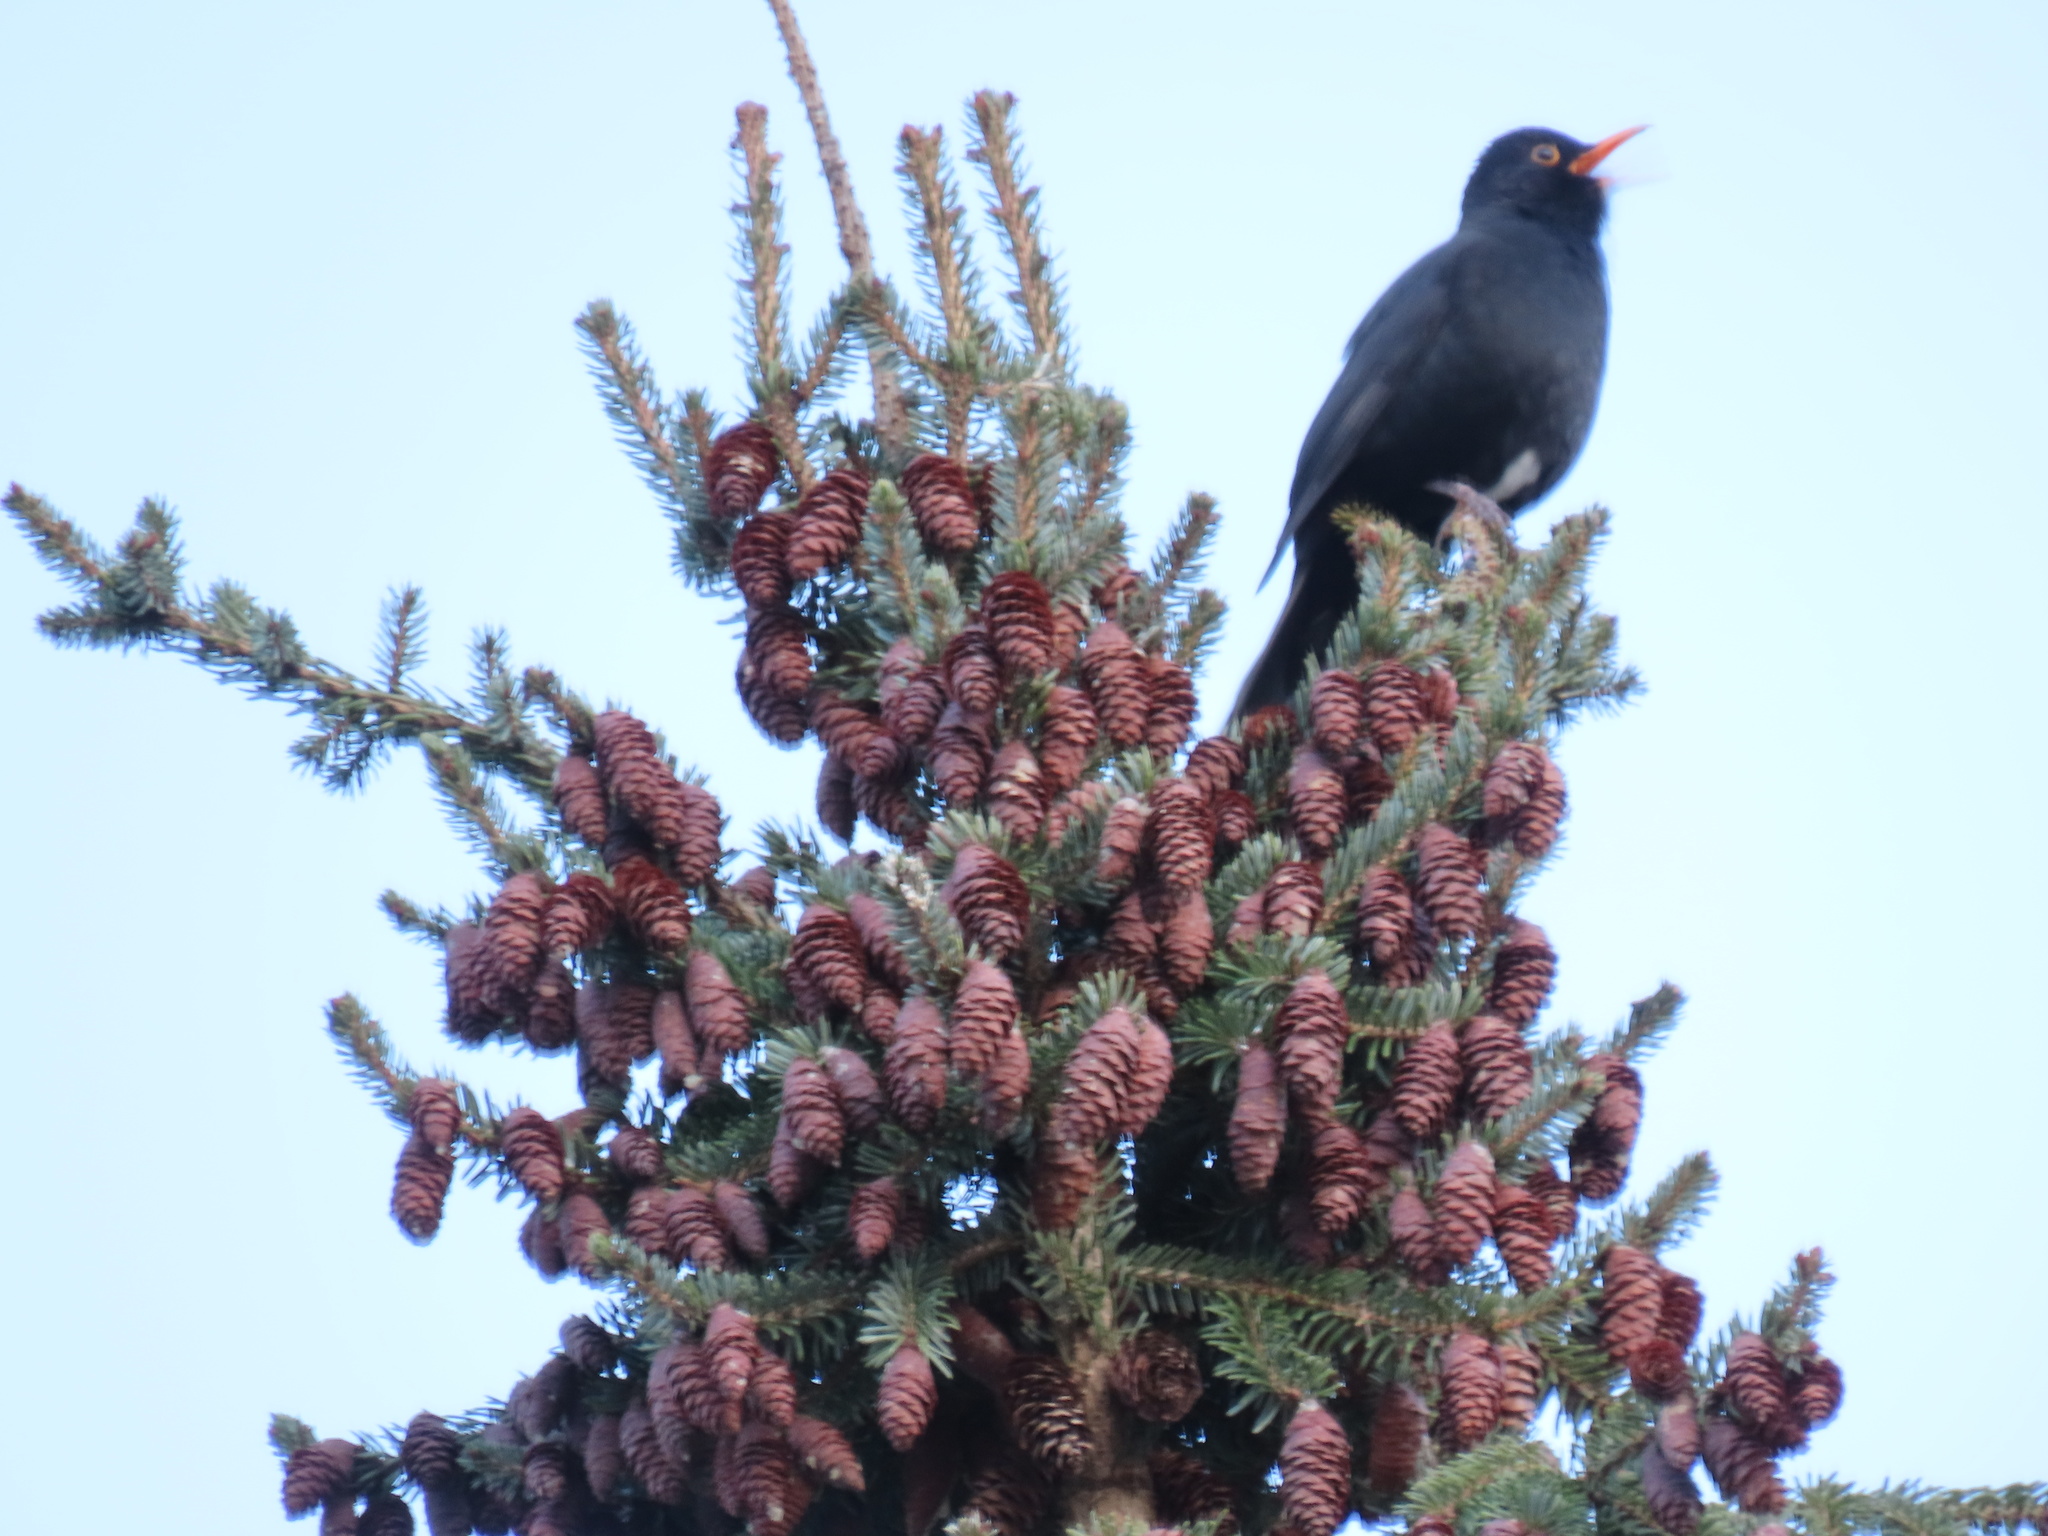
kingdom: Animalia
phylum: Chordata
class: Aves
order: Passeriformes
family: Turdidae
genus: Turdus
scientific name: Turdus merula
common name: Common blackbird
